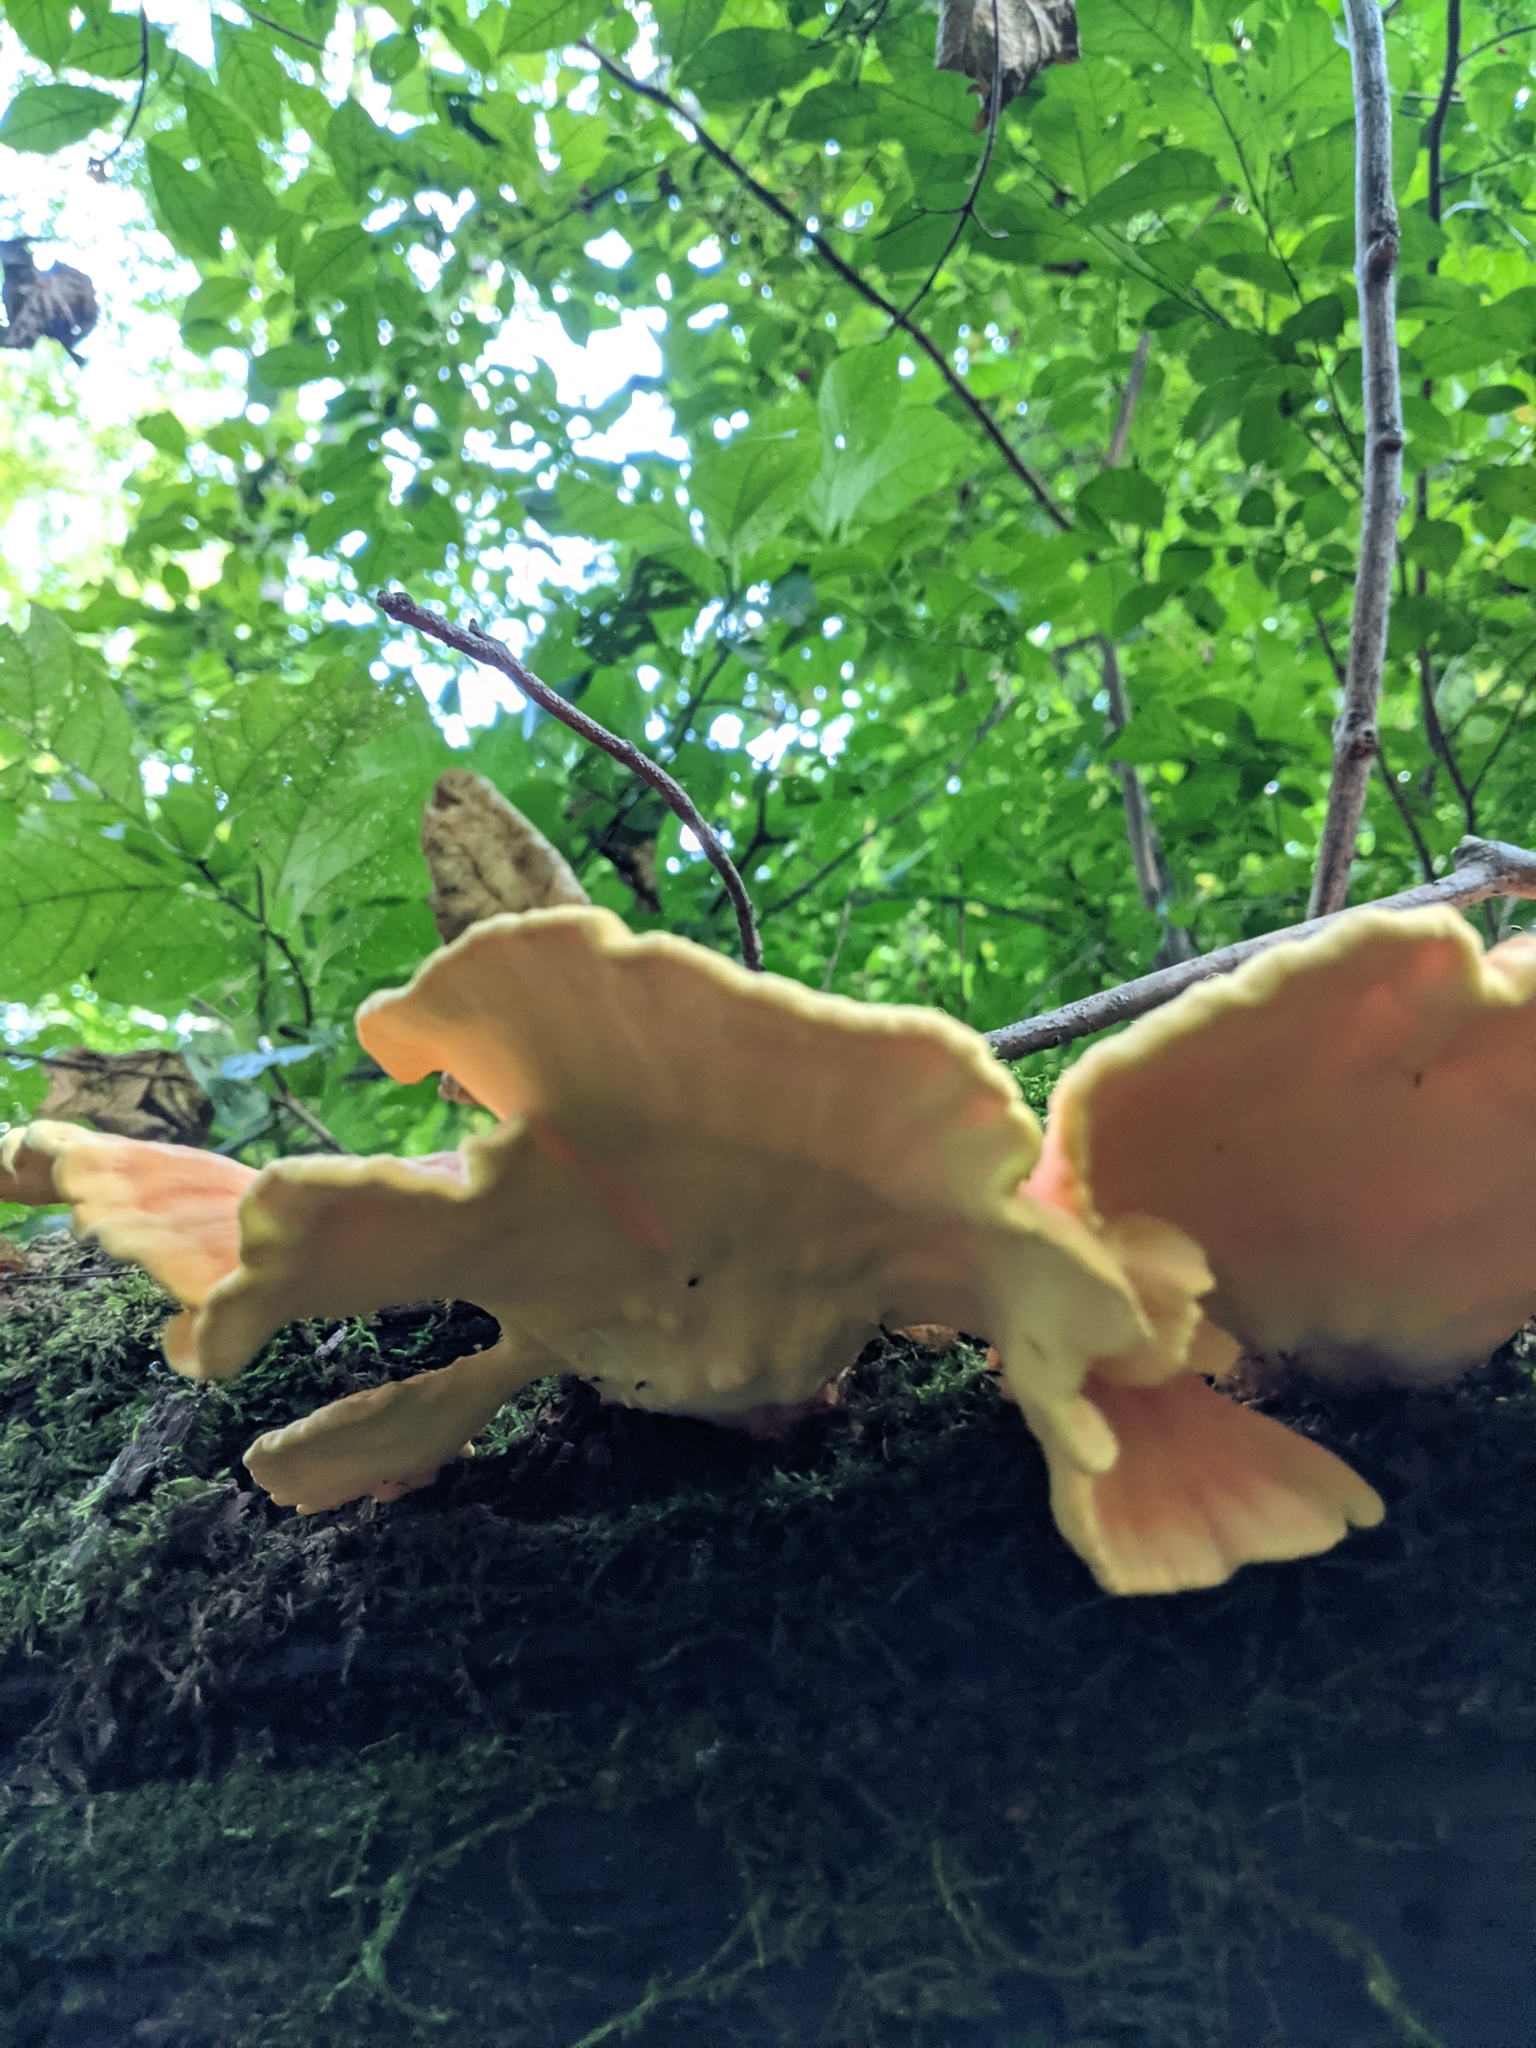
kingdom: Fungi
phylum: Basidiomycota
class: Agaricomycetes
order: Polyporales
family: Laetiporaceae
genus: Laetiporus
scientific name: Laetiporus sulphureus
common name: Chicken of the woods
